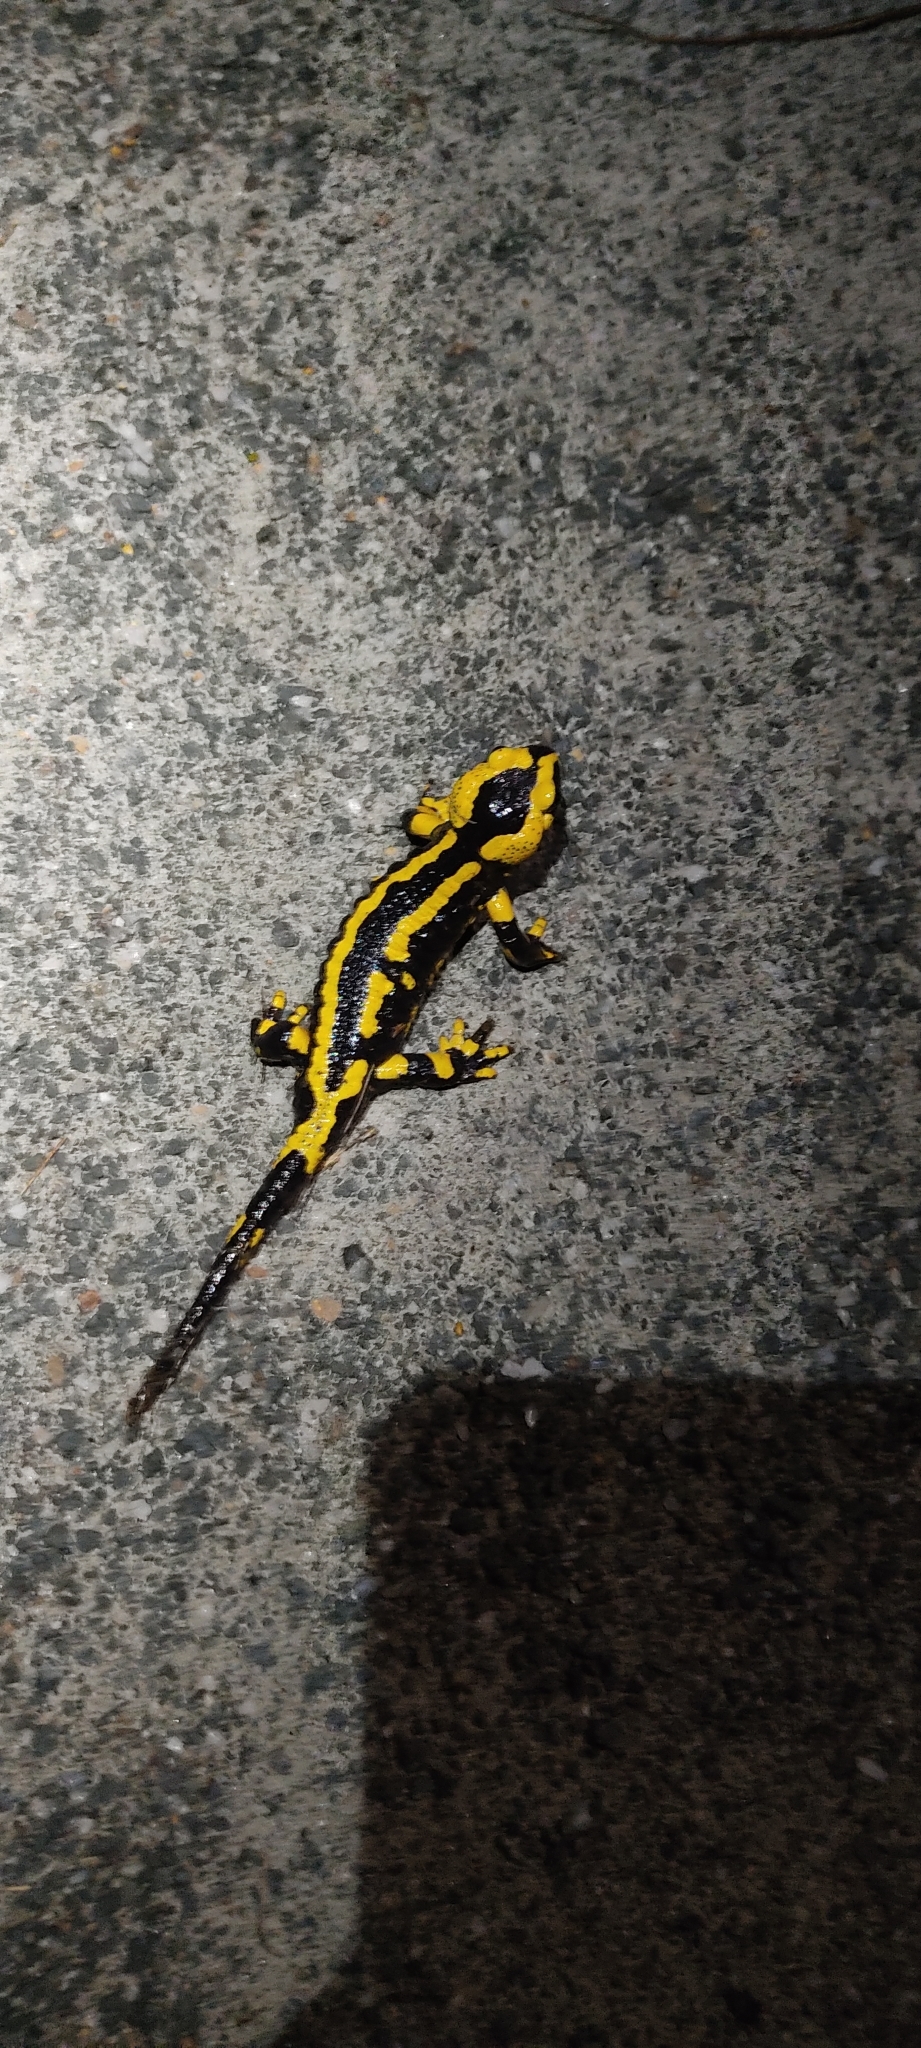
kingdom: Animalia
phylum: Chordata
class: Amphibia
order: Caudata
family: Salamandridae
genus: Salamandra
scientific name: Salamandra salamandra
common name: Fire salamander
